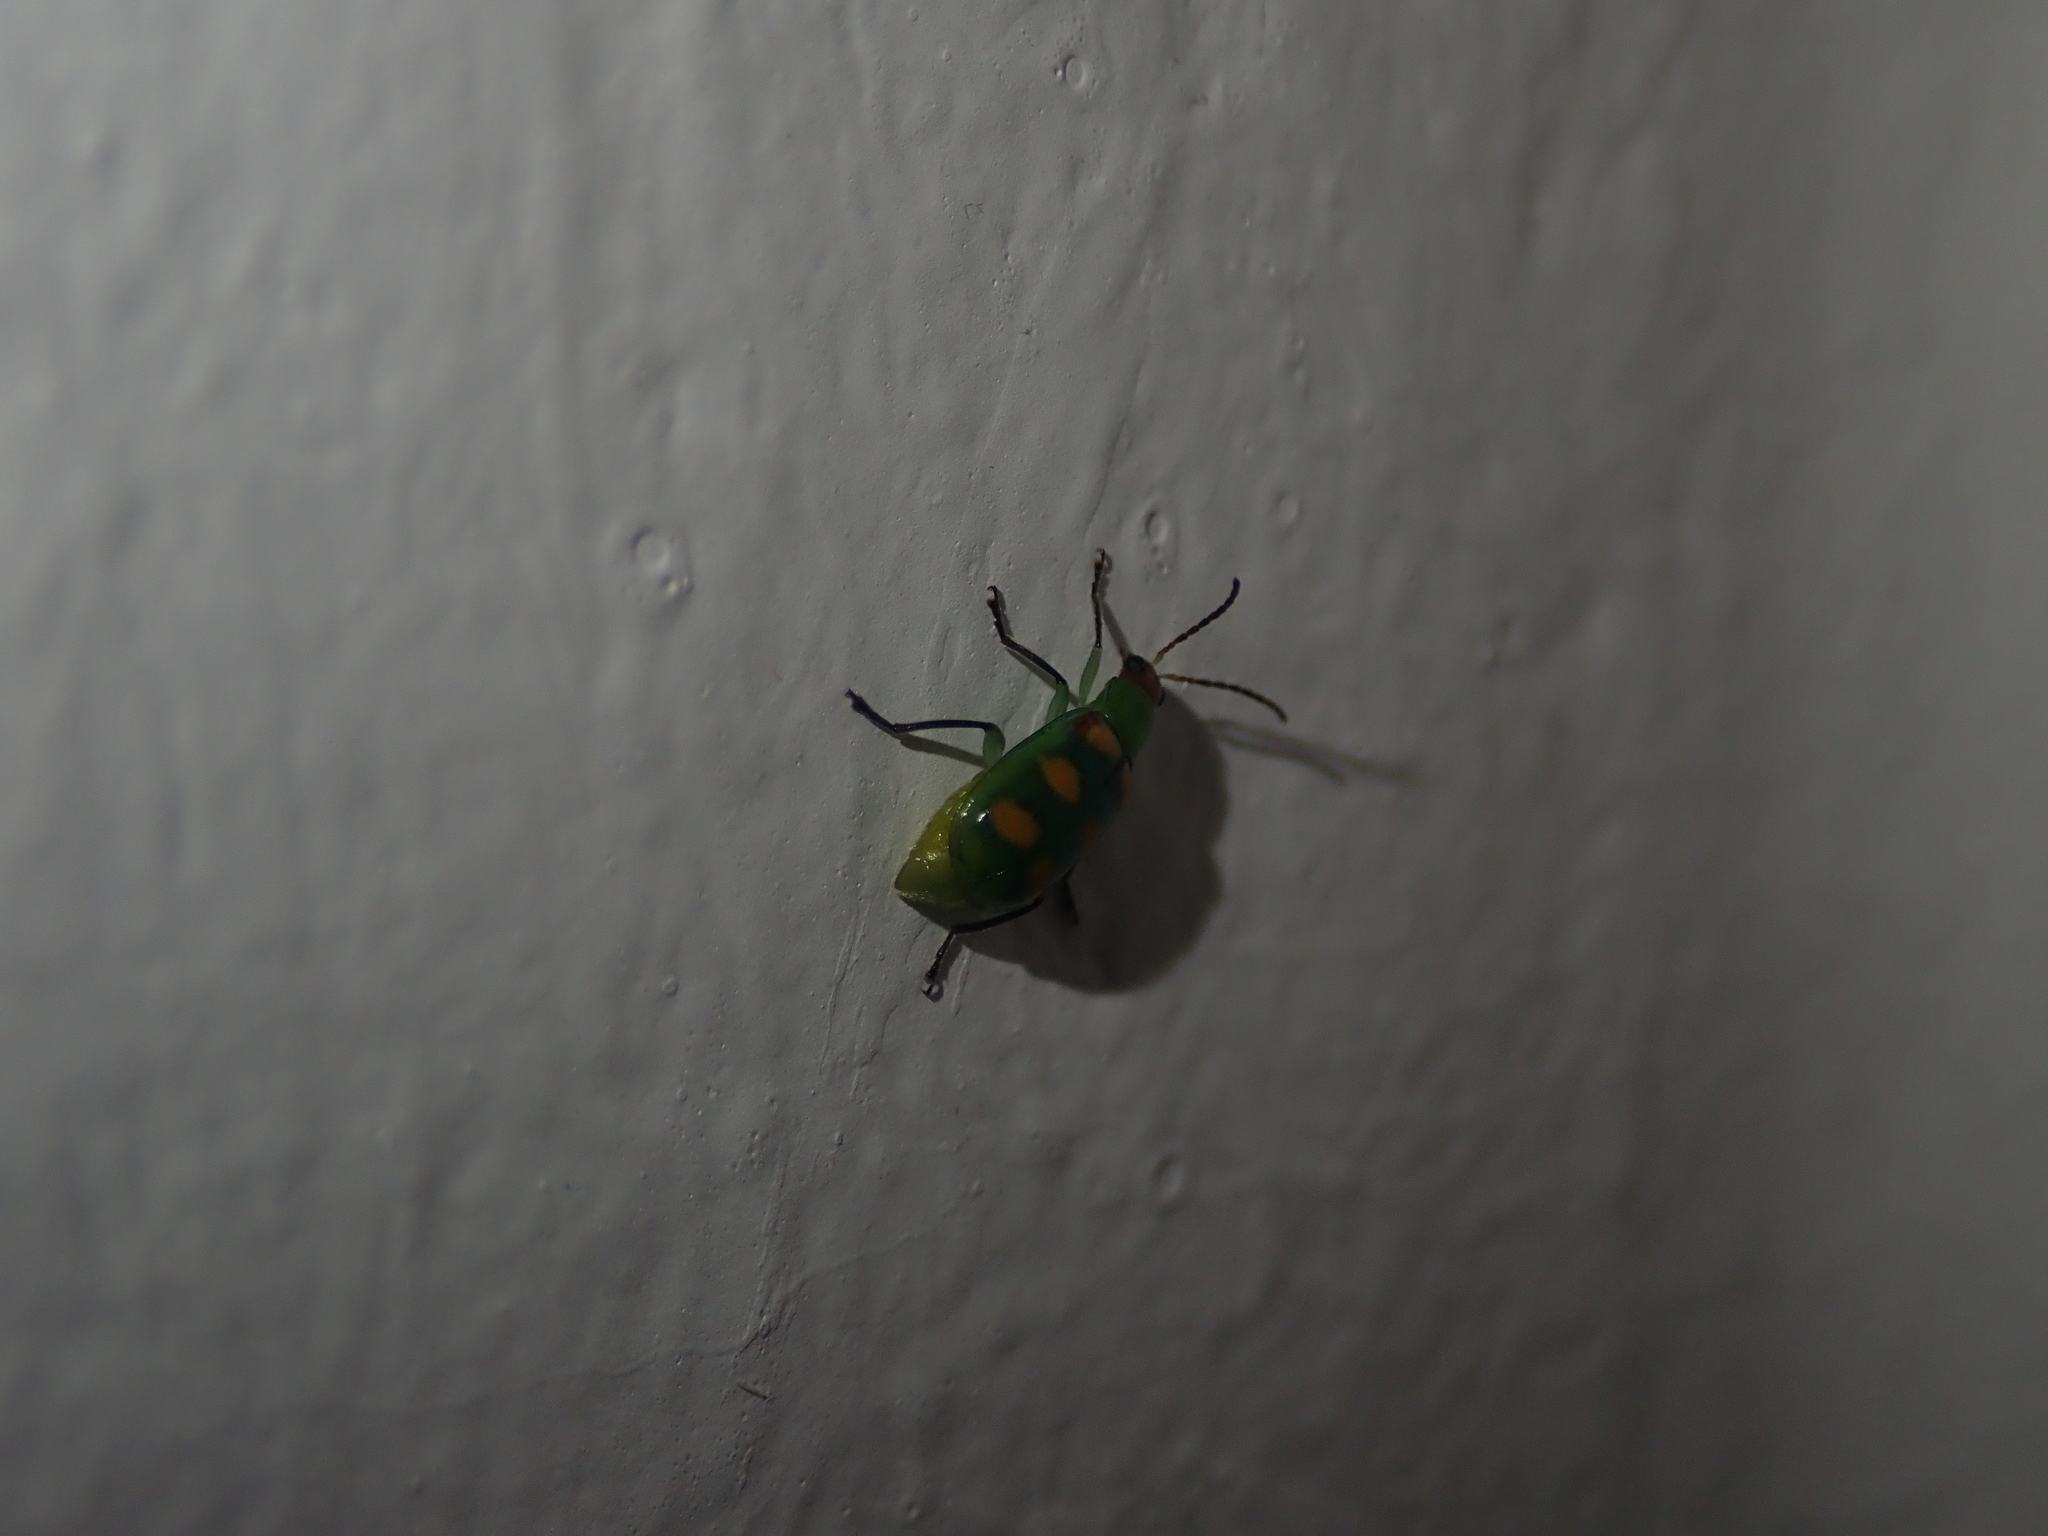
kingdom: Animalia
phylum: Arthropoda
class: Insecta
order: Coleoptera
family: Chrysomelidae
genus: Diabrotica
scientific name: Diabrotica speciosa
